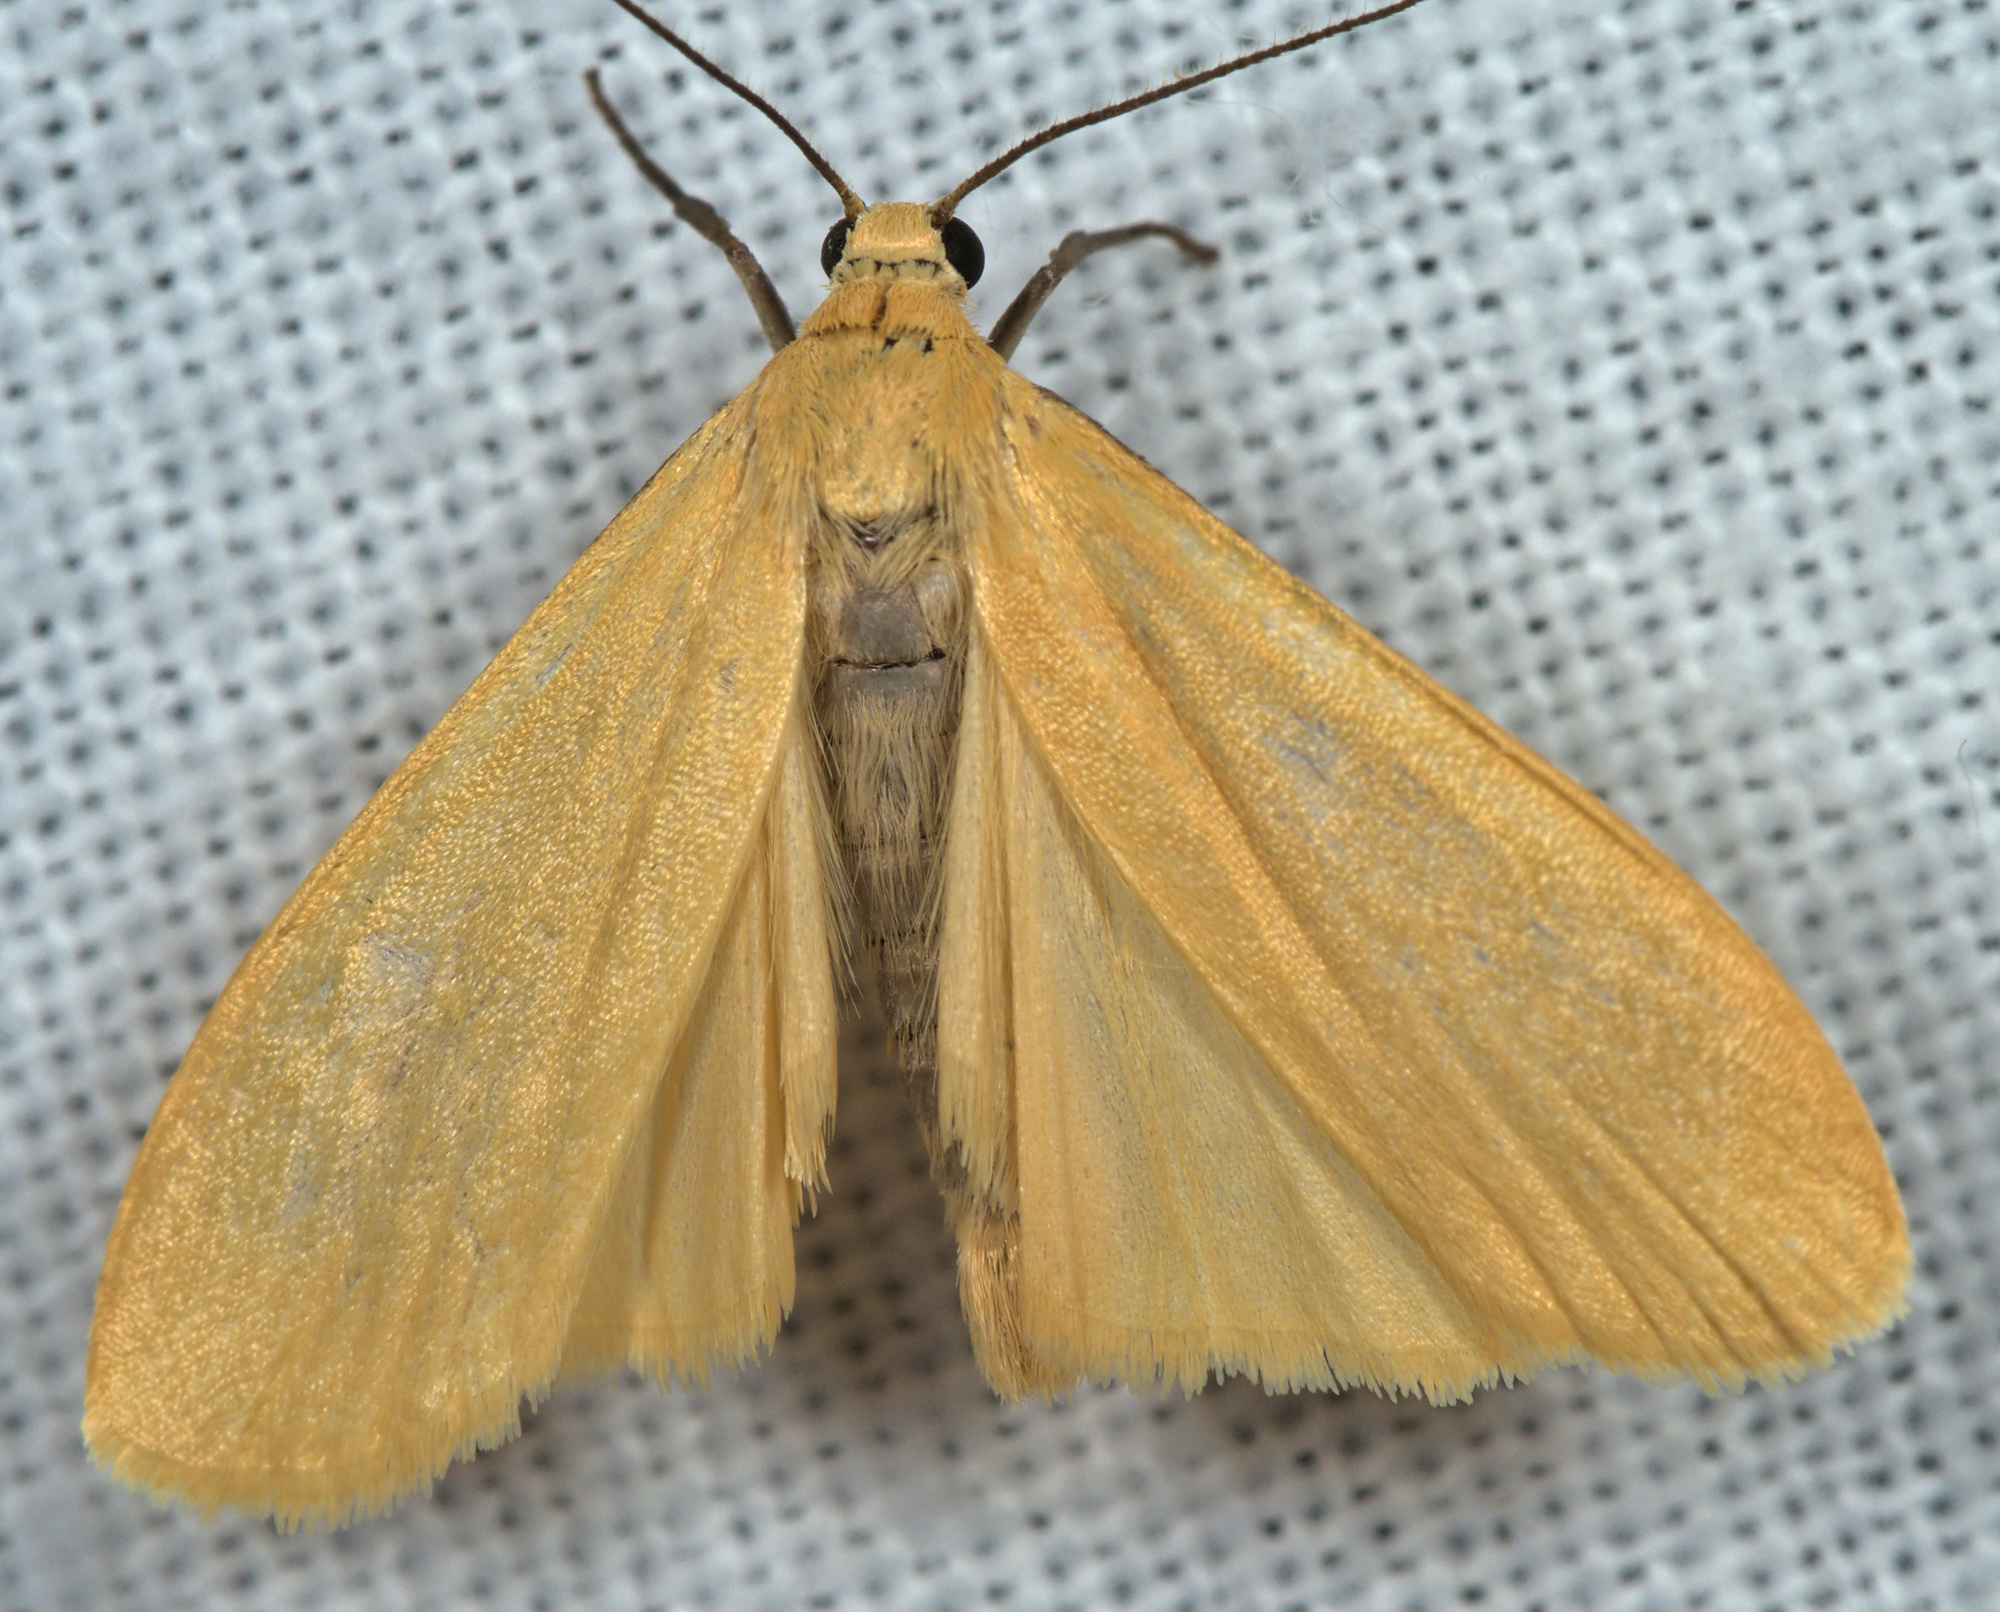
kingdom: Animalia
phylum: Arthropoda
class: Insecta
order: Lepidoptera
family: Erebidae
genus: Wittia
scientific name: Wittia sororcula
